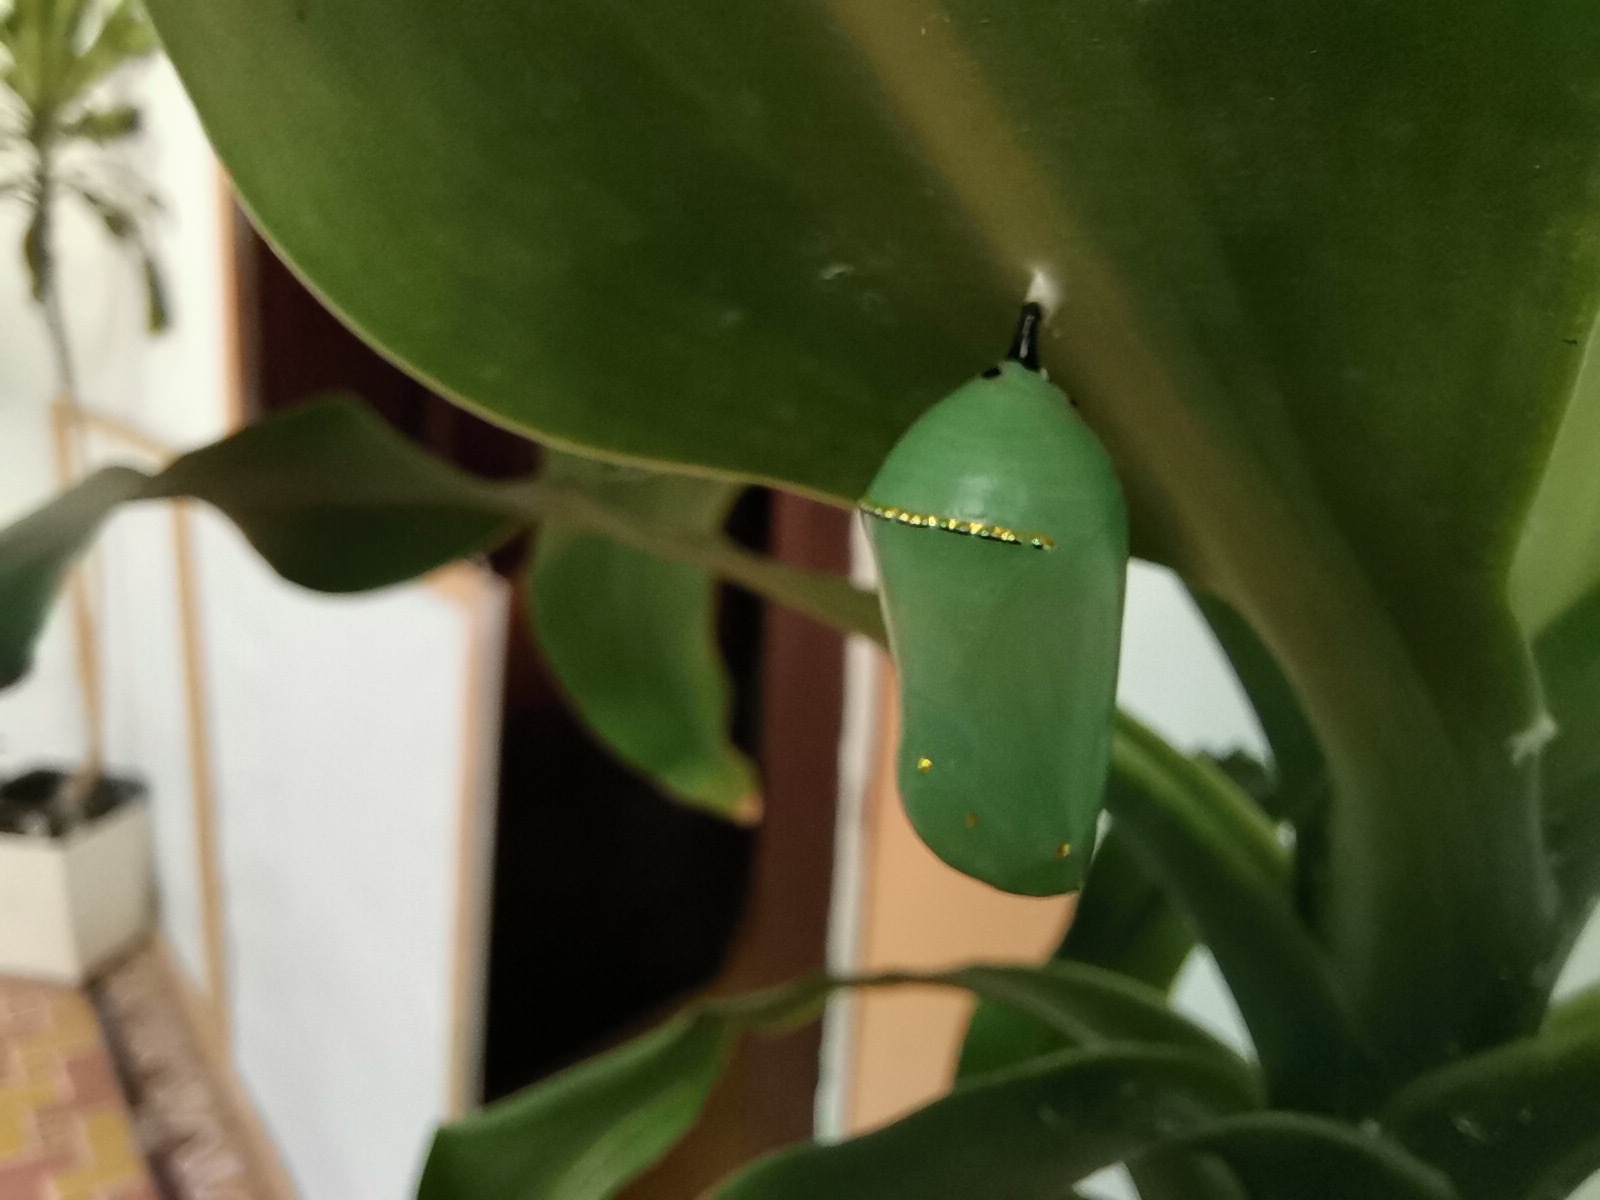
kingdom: Animalia
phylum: Arthropoda
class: Insecta
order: Lepidoptera
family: Nymphalidae
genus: Danaus
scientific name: Danaus plexippus
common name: Monarch
